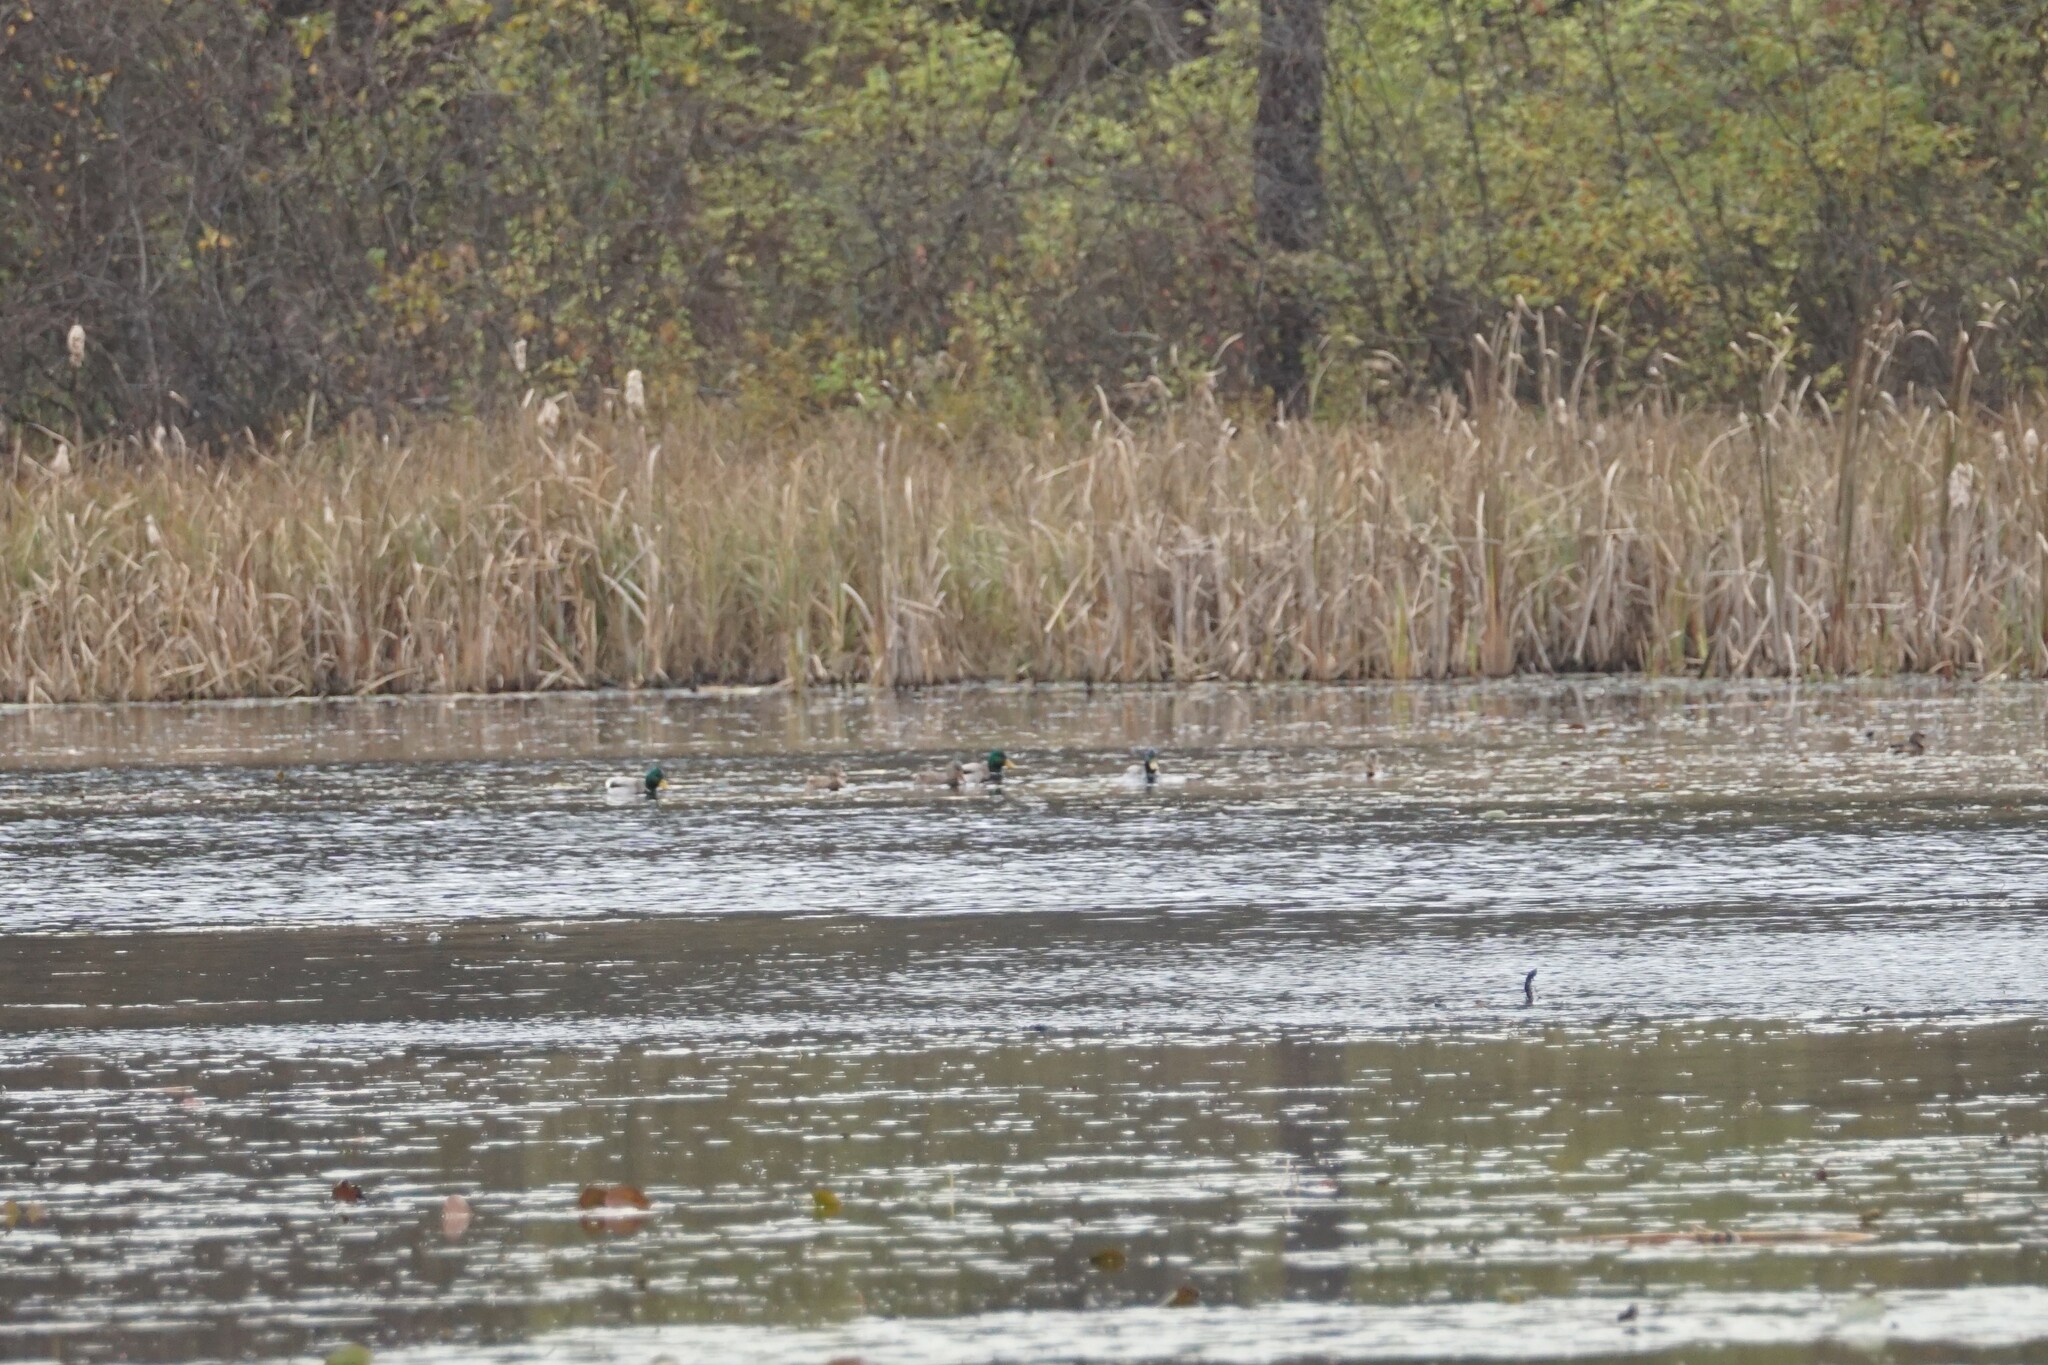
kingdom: Animalia
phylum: Chordata
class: Aves
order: Anseriformes
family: Anatidae
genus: Anas
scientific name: Anas platyrhynchos
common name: Mallard
